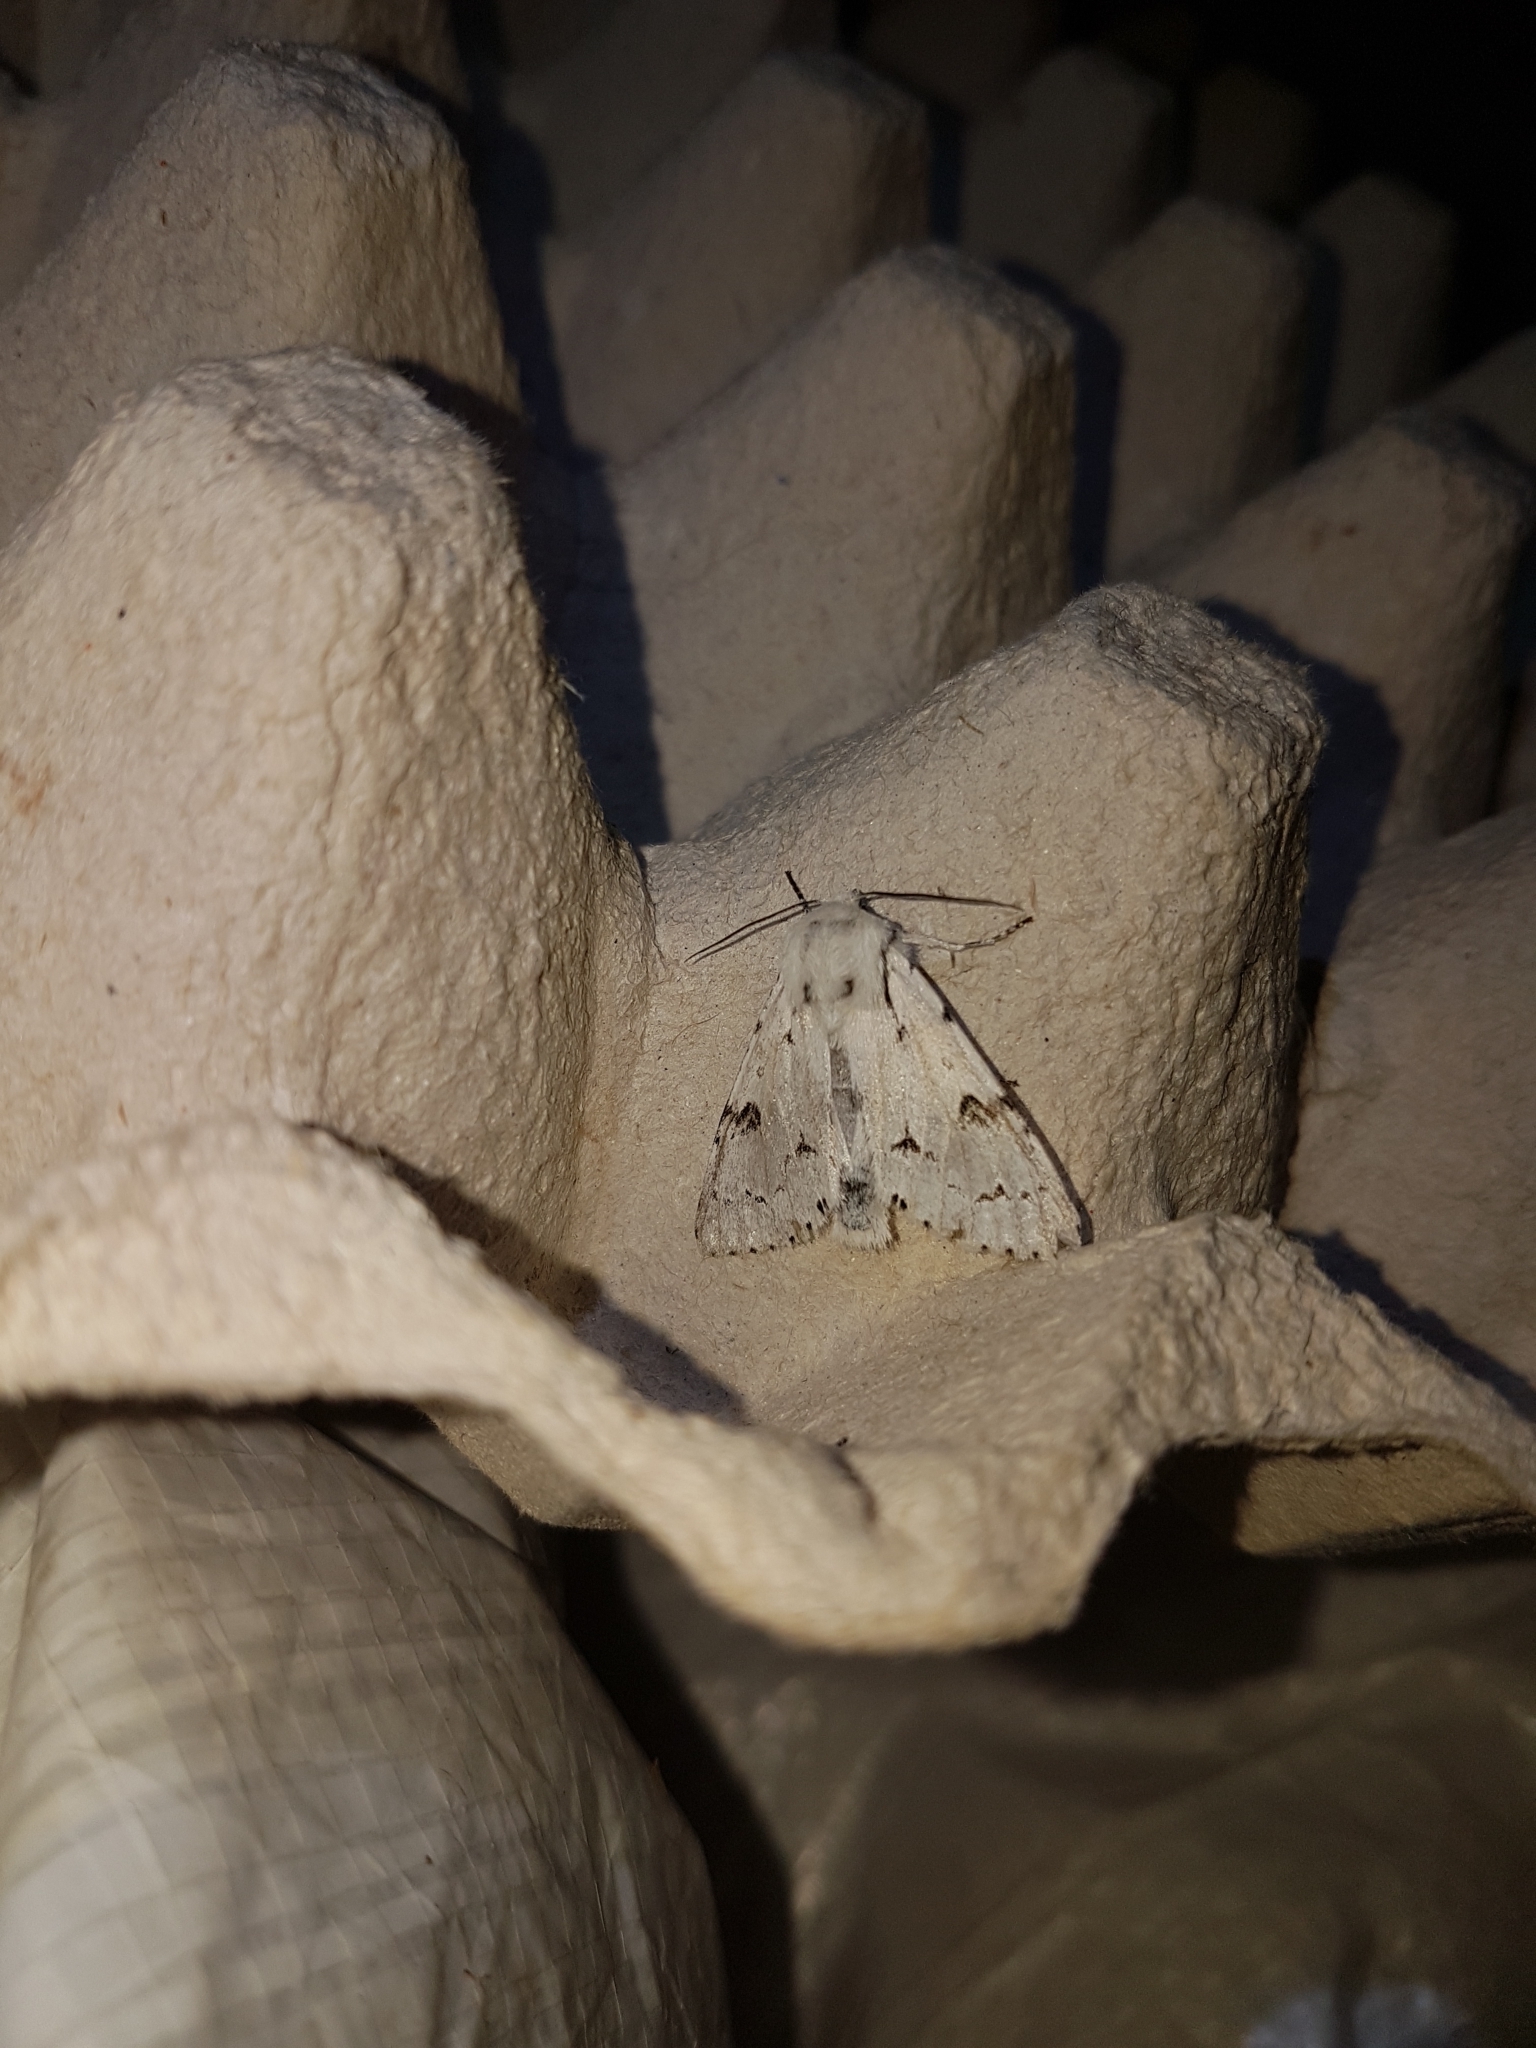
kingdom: Animalia
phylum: Arthropoda
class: Insecta
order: Lepidoptera
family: Noctuidae
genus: Acronicta
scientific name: Acronicta leporina
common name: Miller
